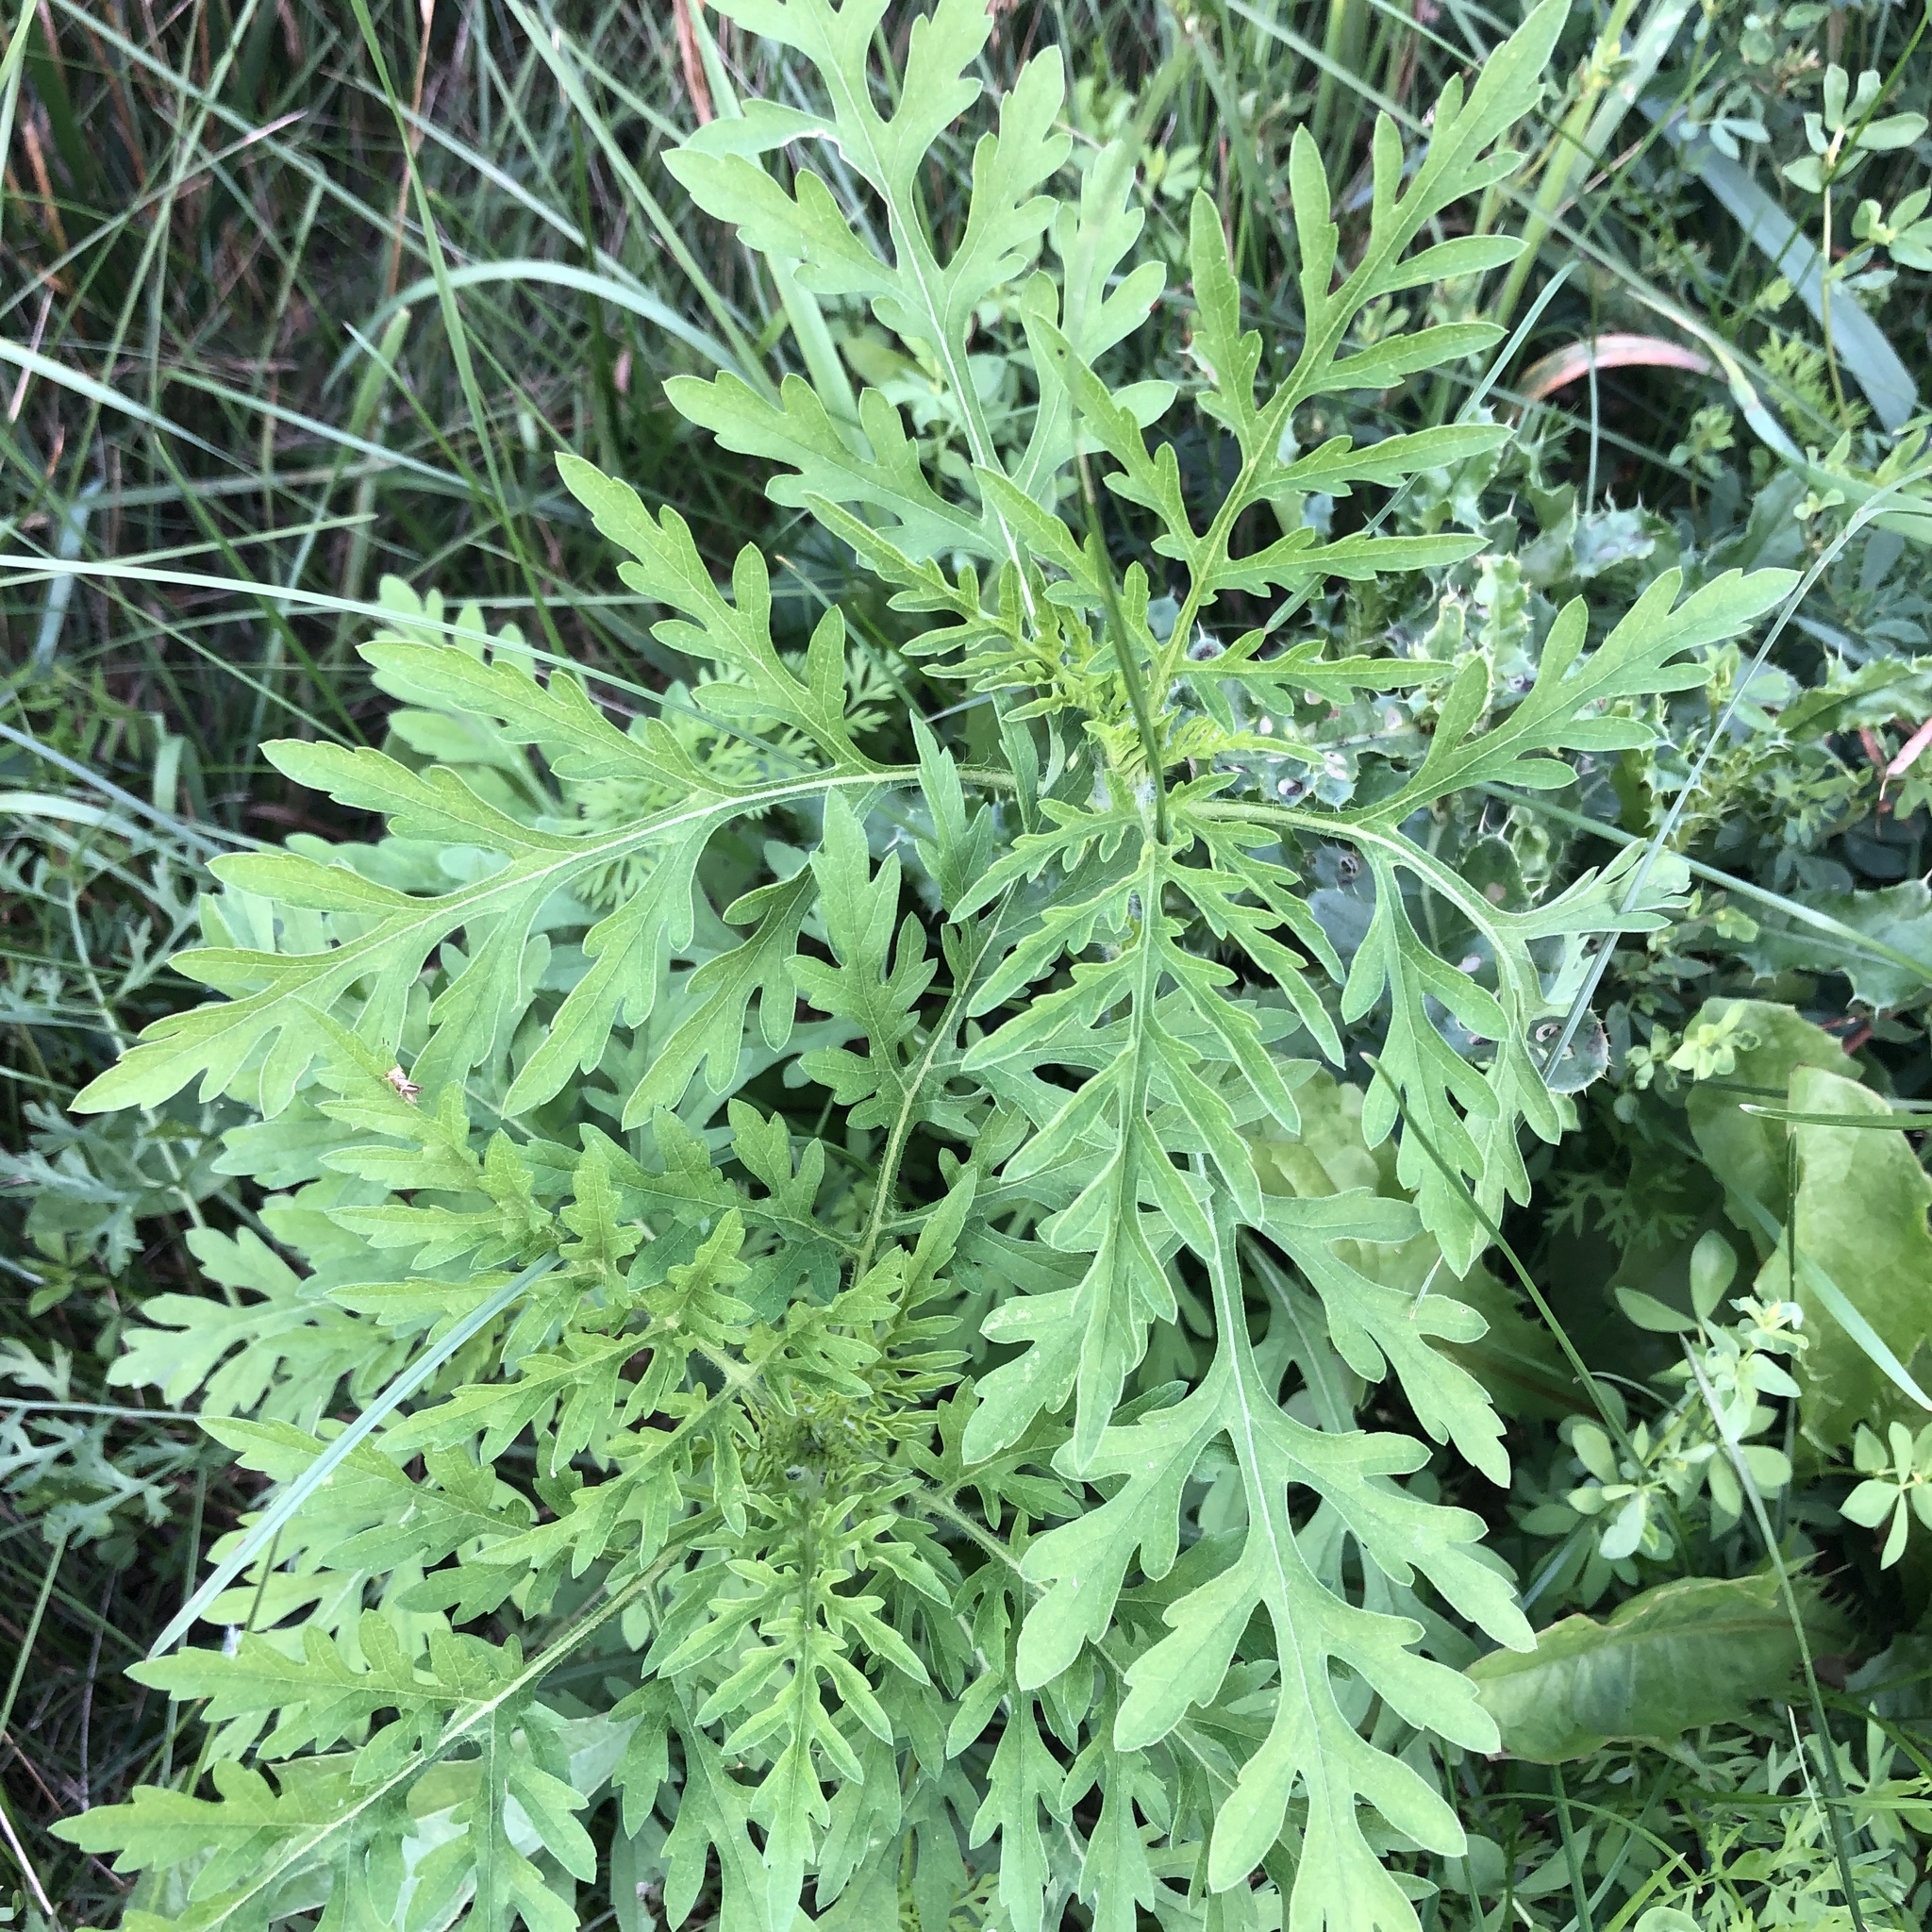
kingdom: Plantae
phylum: Tracheophyta
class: Magnoliopsida
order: Asterales
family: Asteraceae
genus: Ambrosia
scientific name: Ambrosia artemisiifolia
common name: Annual ragweed
